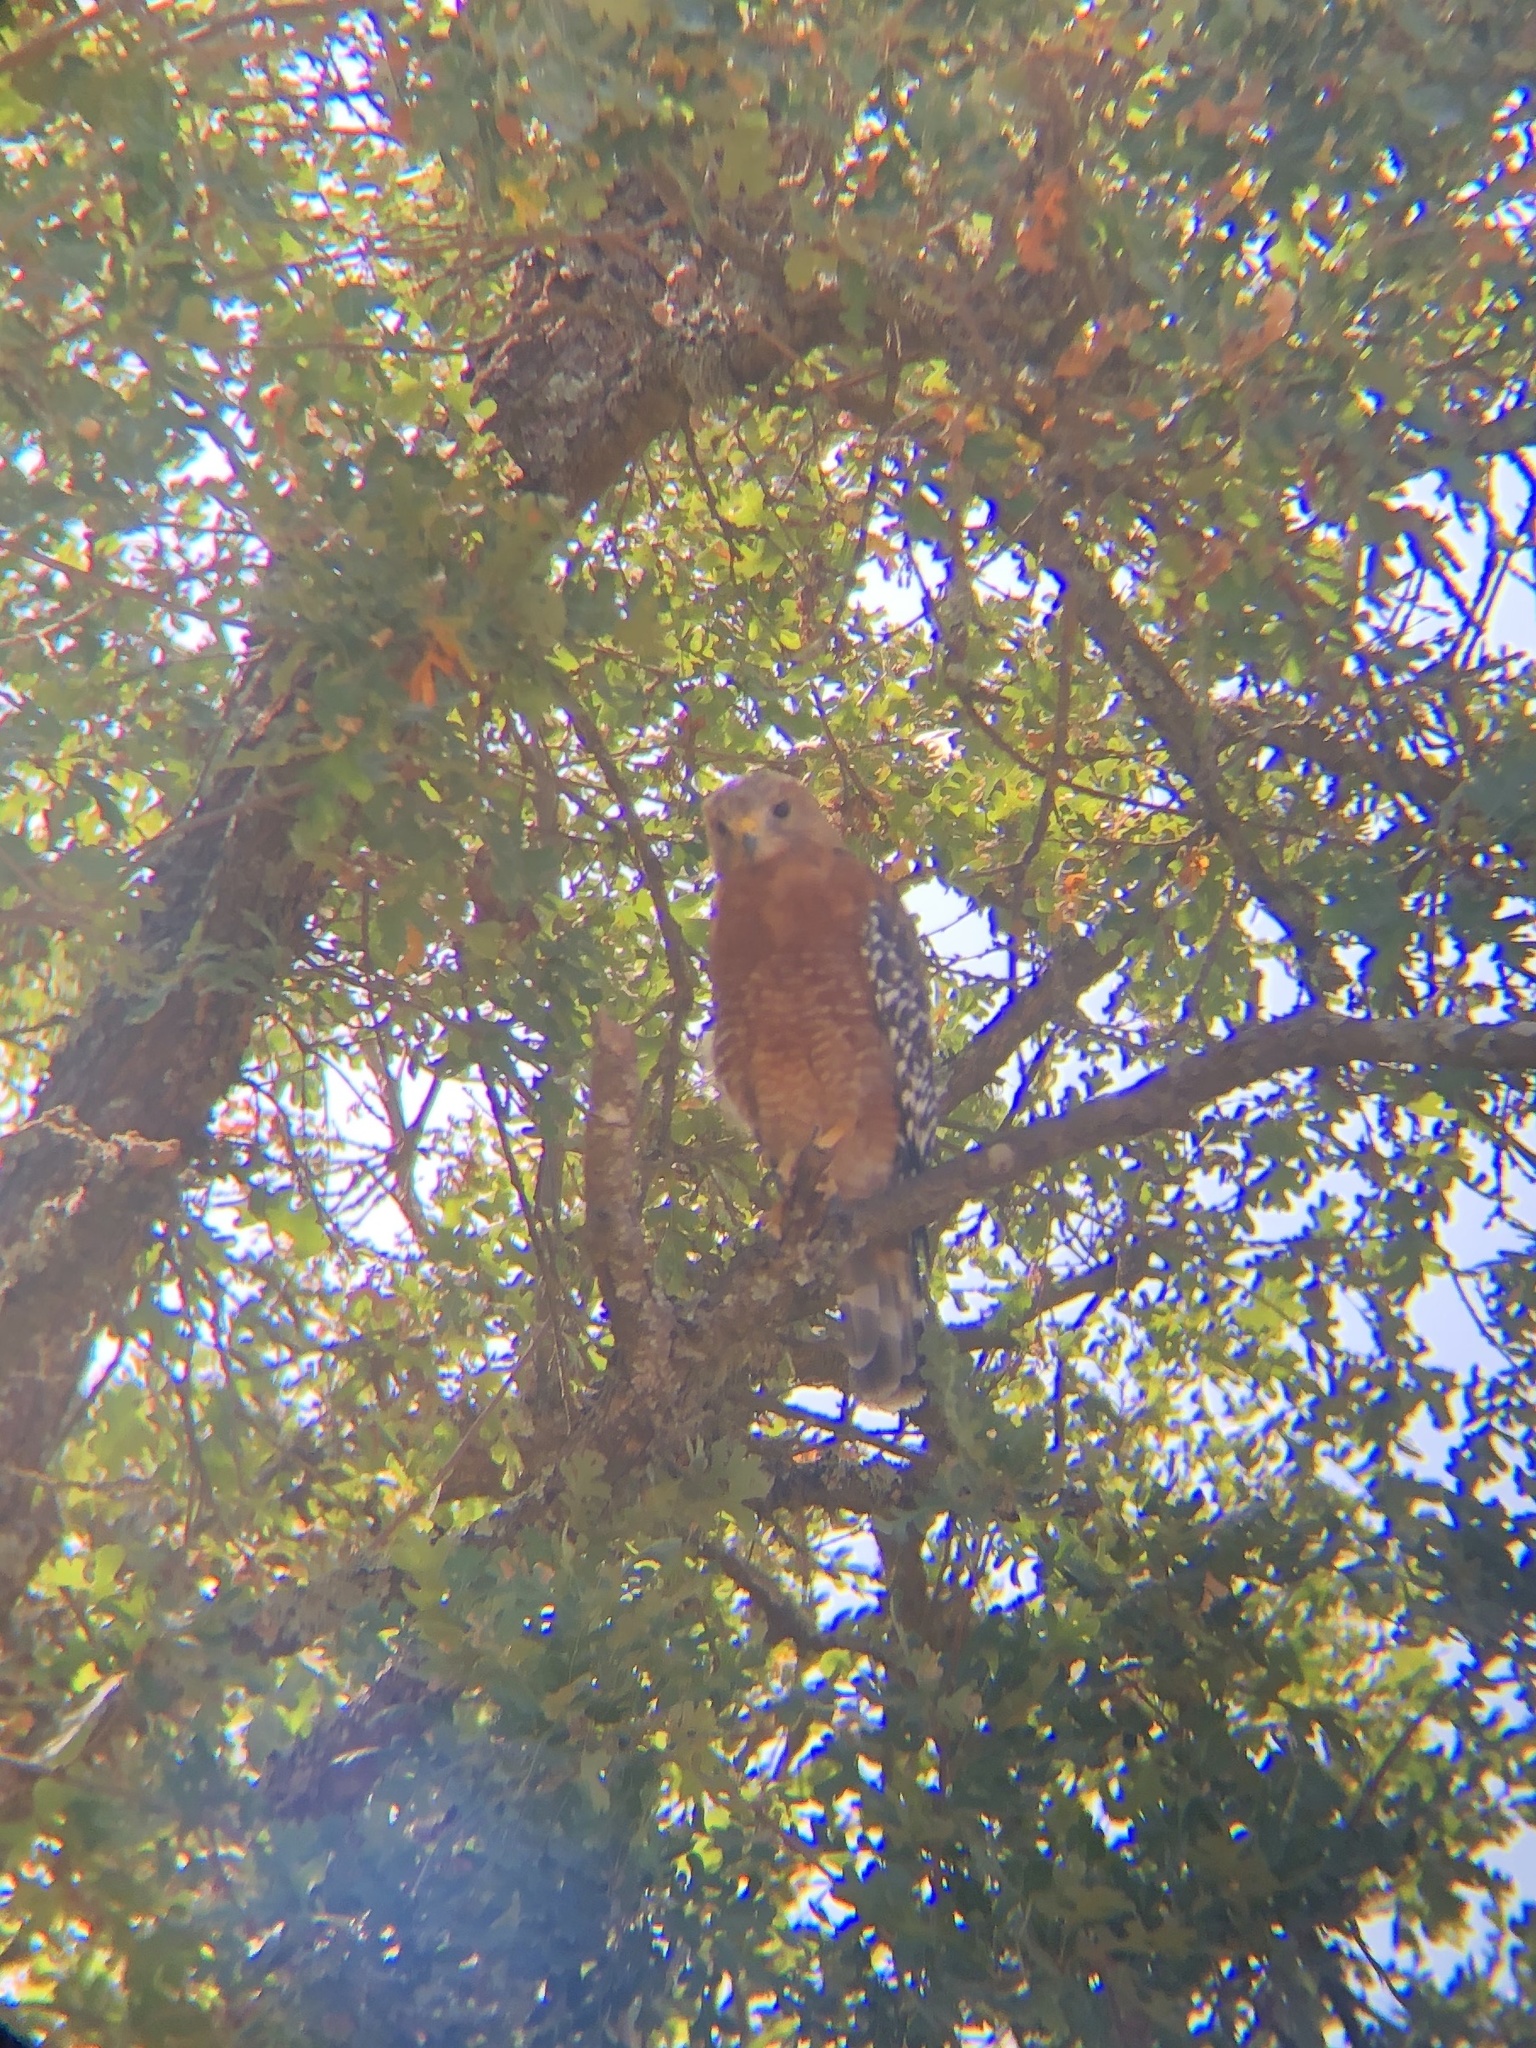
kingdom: Animalia
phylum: Chordata
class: Aves
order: Accipitriformes
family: Accipitridae
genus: Buteo
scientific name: Buteo lineatus
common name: Red-shouldered hawk
